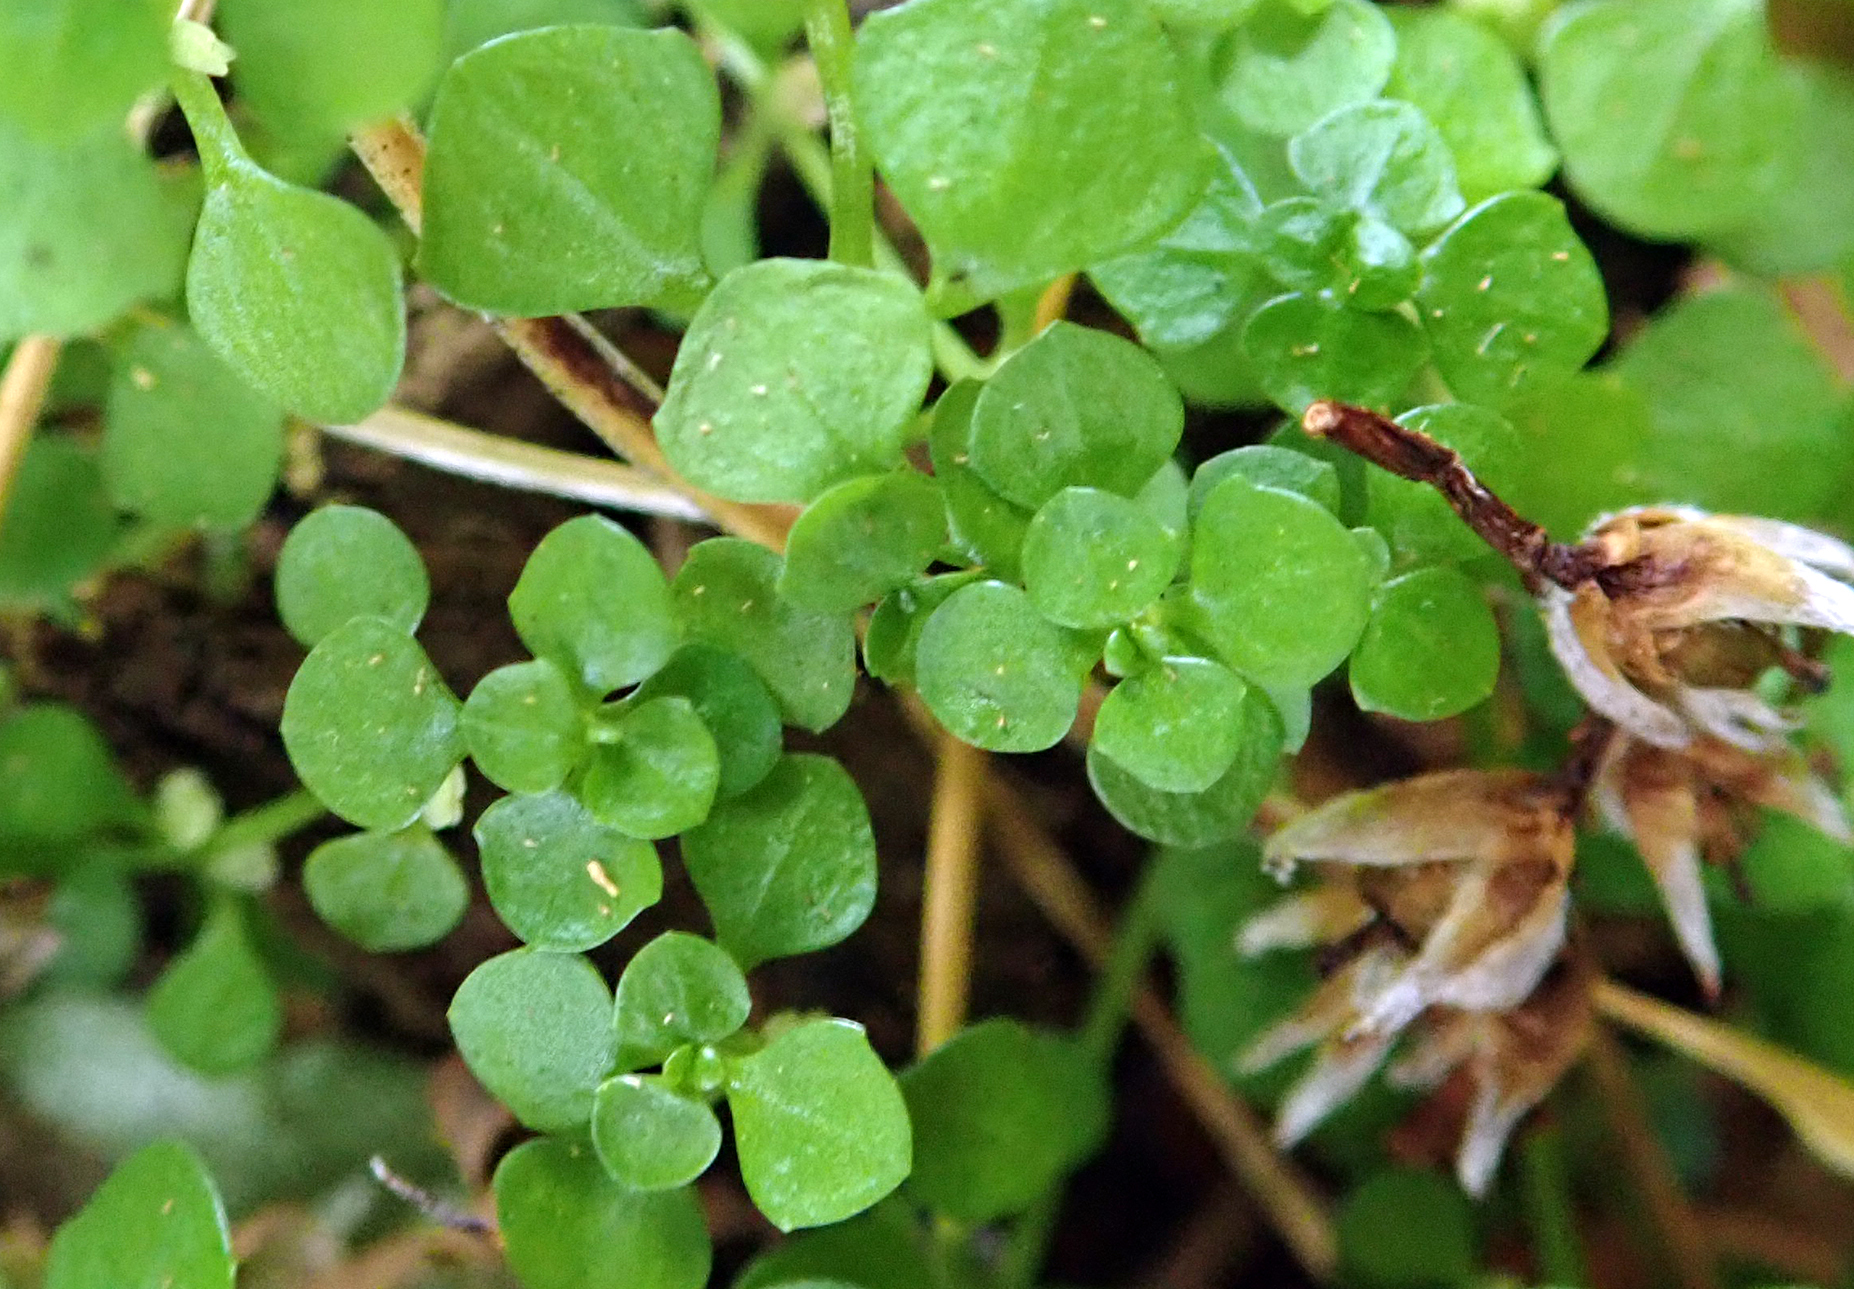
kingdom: Plantae
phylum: Tracheophyta
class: Magnoliopsida
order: Lamiales
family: Plantaginaceae
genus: Callitriche
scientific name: Callitriche muelleri
